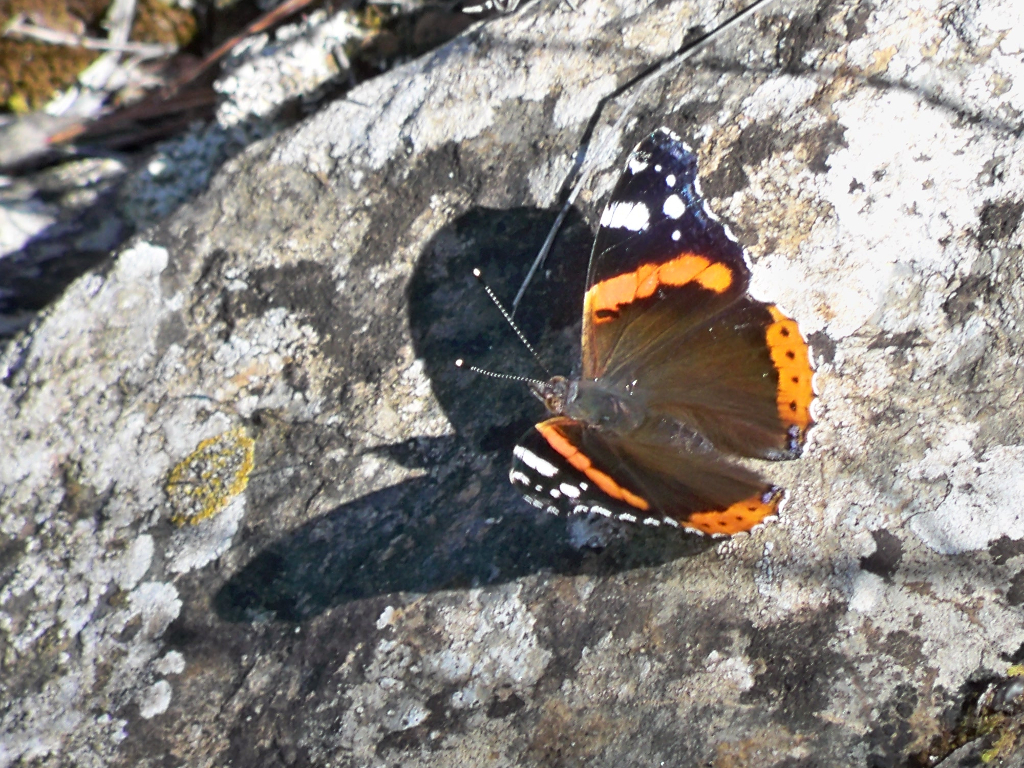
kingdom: Animalia
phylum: Arthropoda
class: Insecta
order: Lepidoptera
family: Nymphalidae
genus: Vanessa
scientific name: Vanessa atalanta
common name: Red admiral
